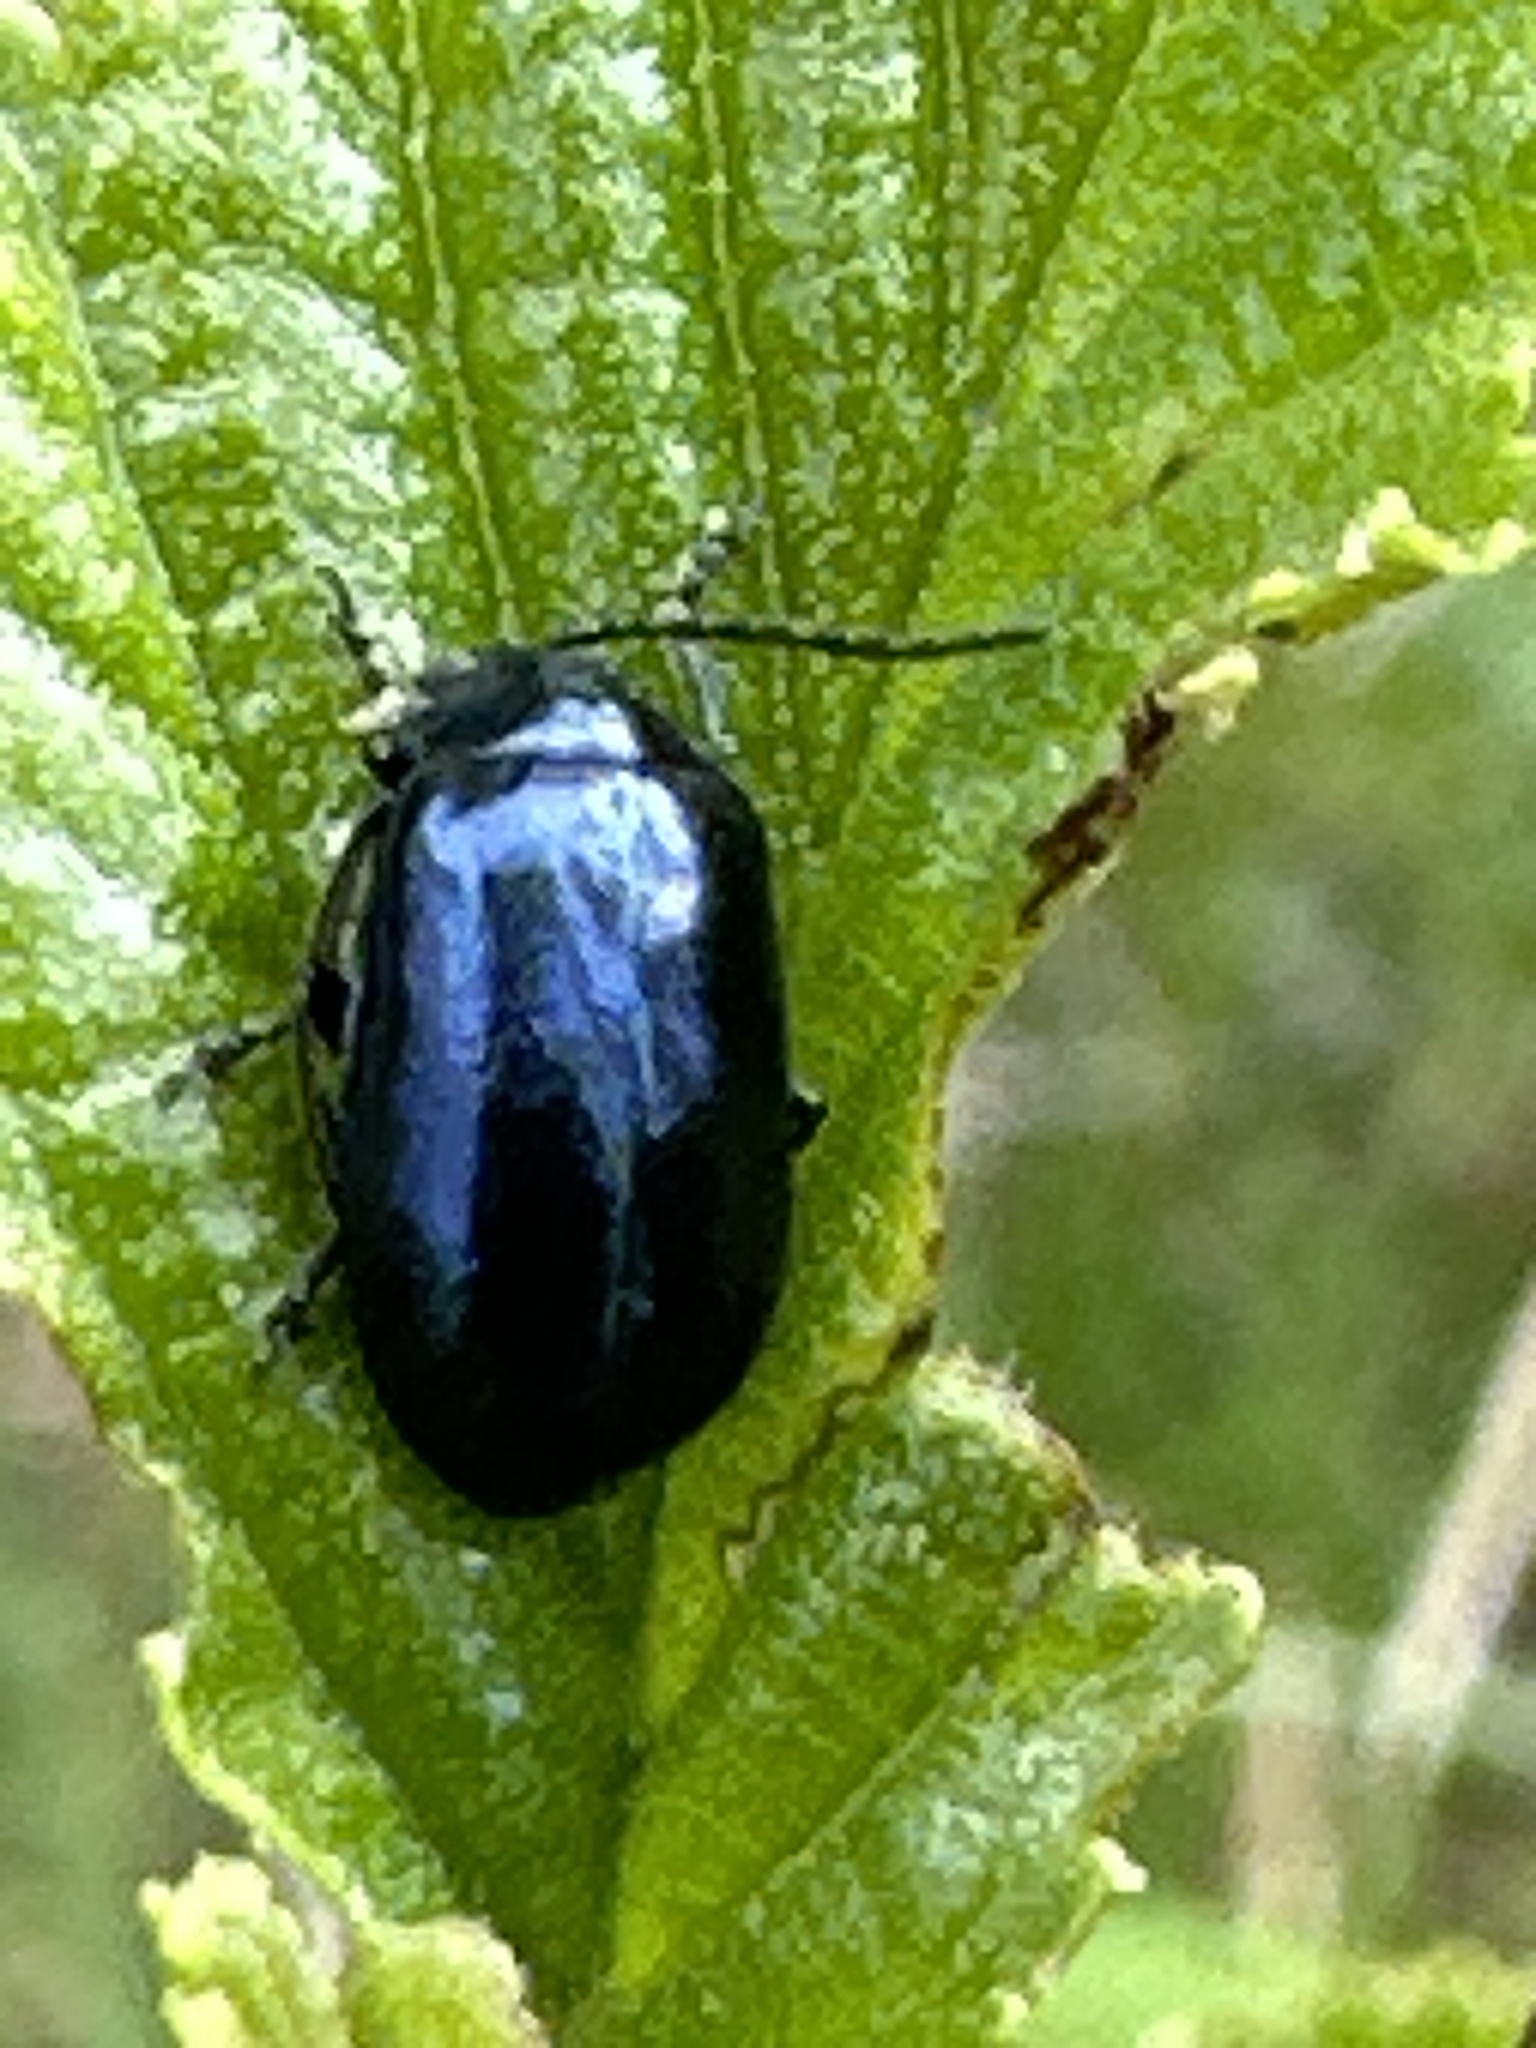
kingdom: Animalia
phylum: Arthropoda
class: Insecta
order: Coleoptera
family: Chrysomelidae
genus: Agelastica
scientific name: Agelastica alni
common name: Alder leaf beetle
